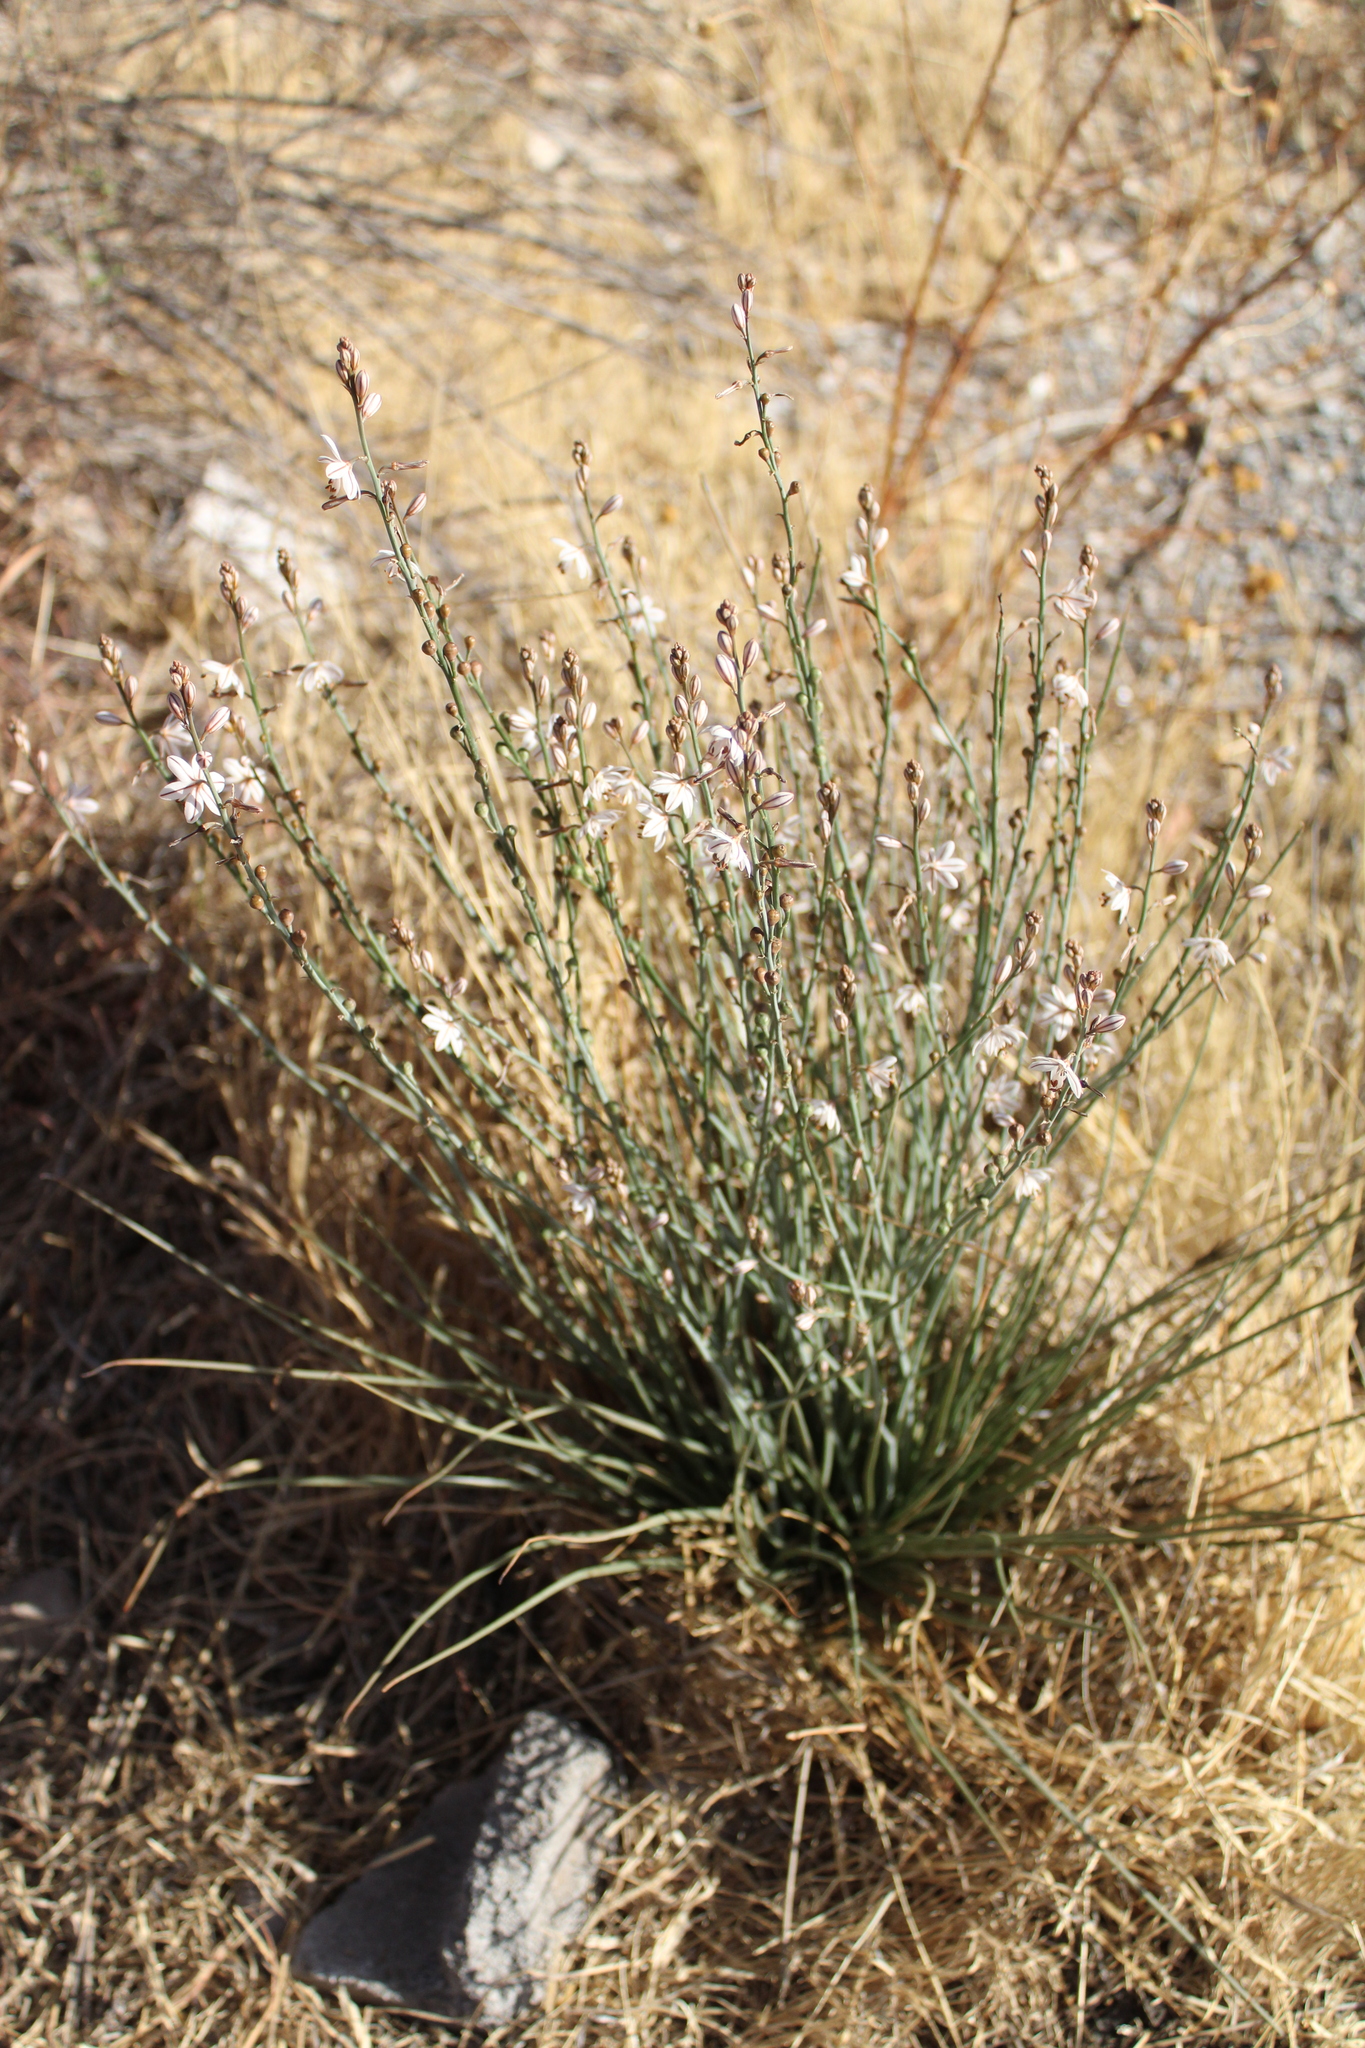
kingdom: Plantae
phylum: Tracheophyta
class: Liliopsida
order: Asparagales
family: Asphodelaceae
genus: Asphodelus
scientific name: Asphodelus fistulosus
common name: Onionweed
